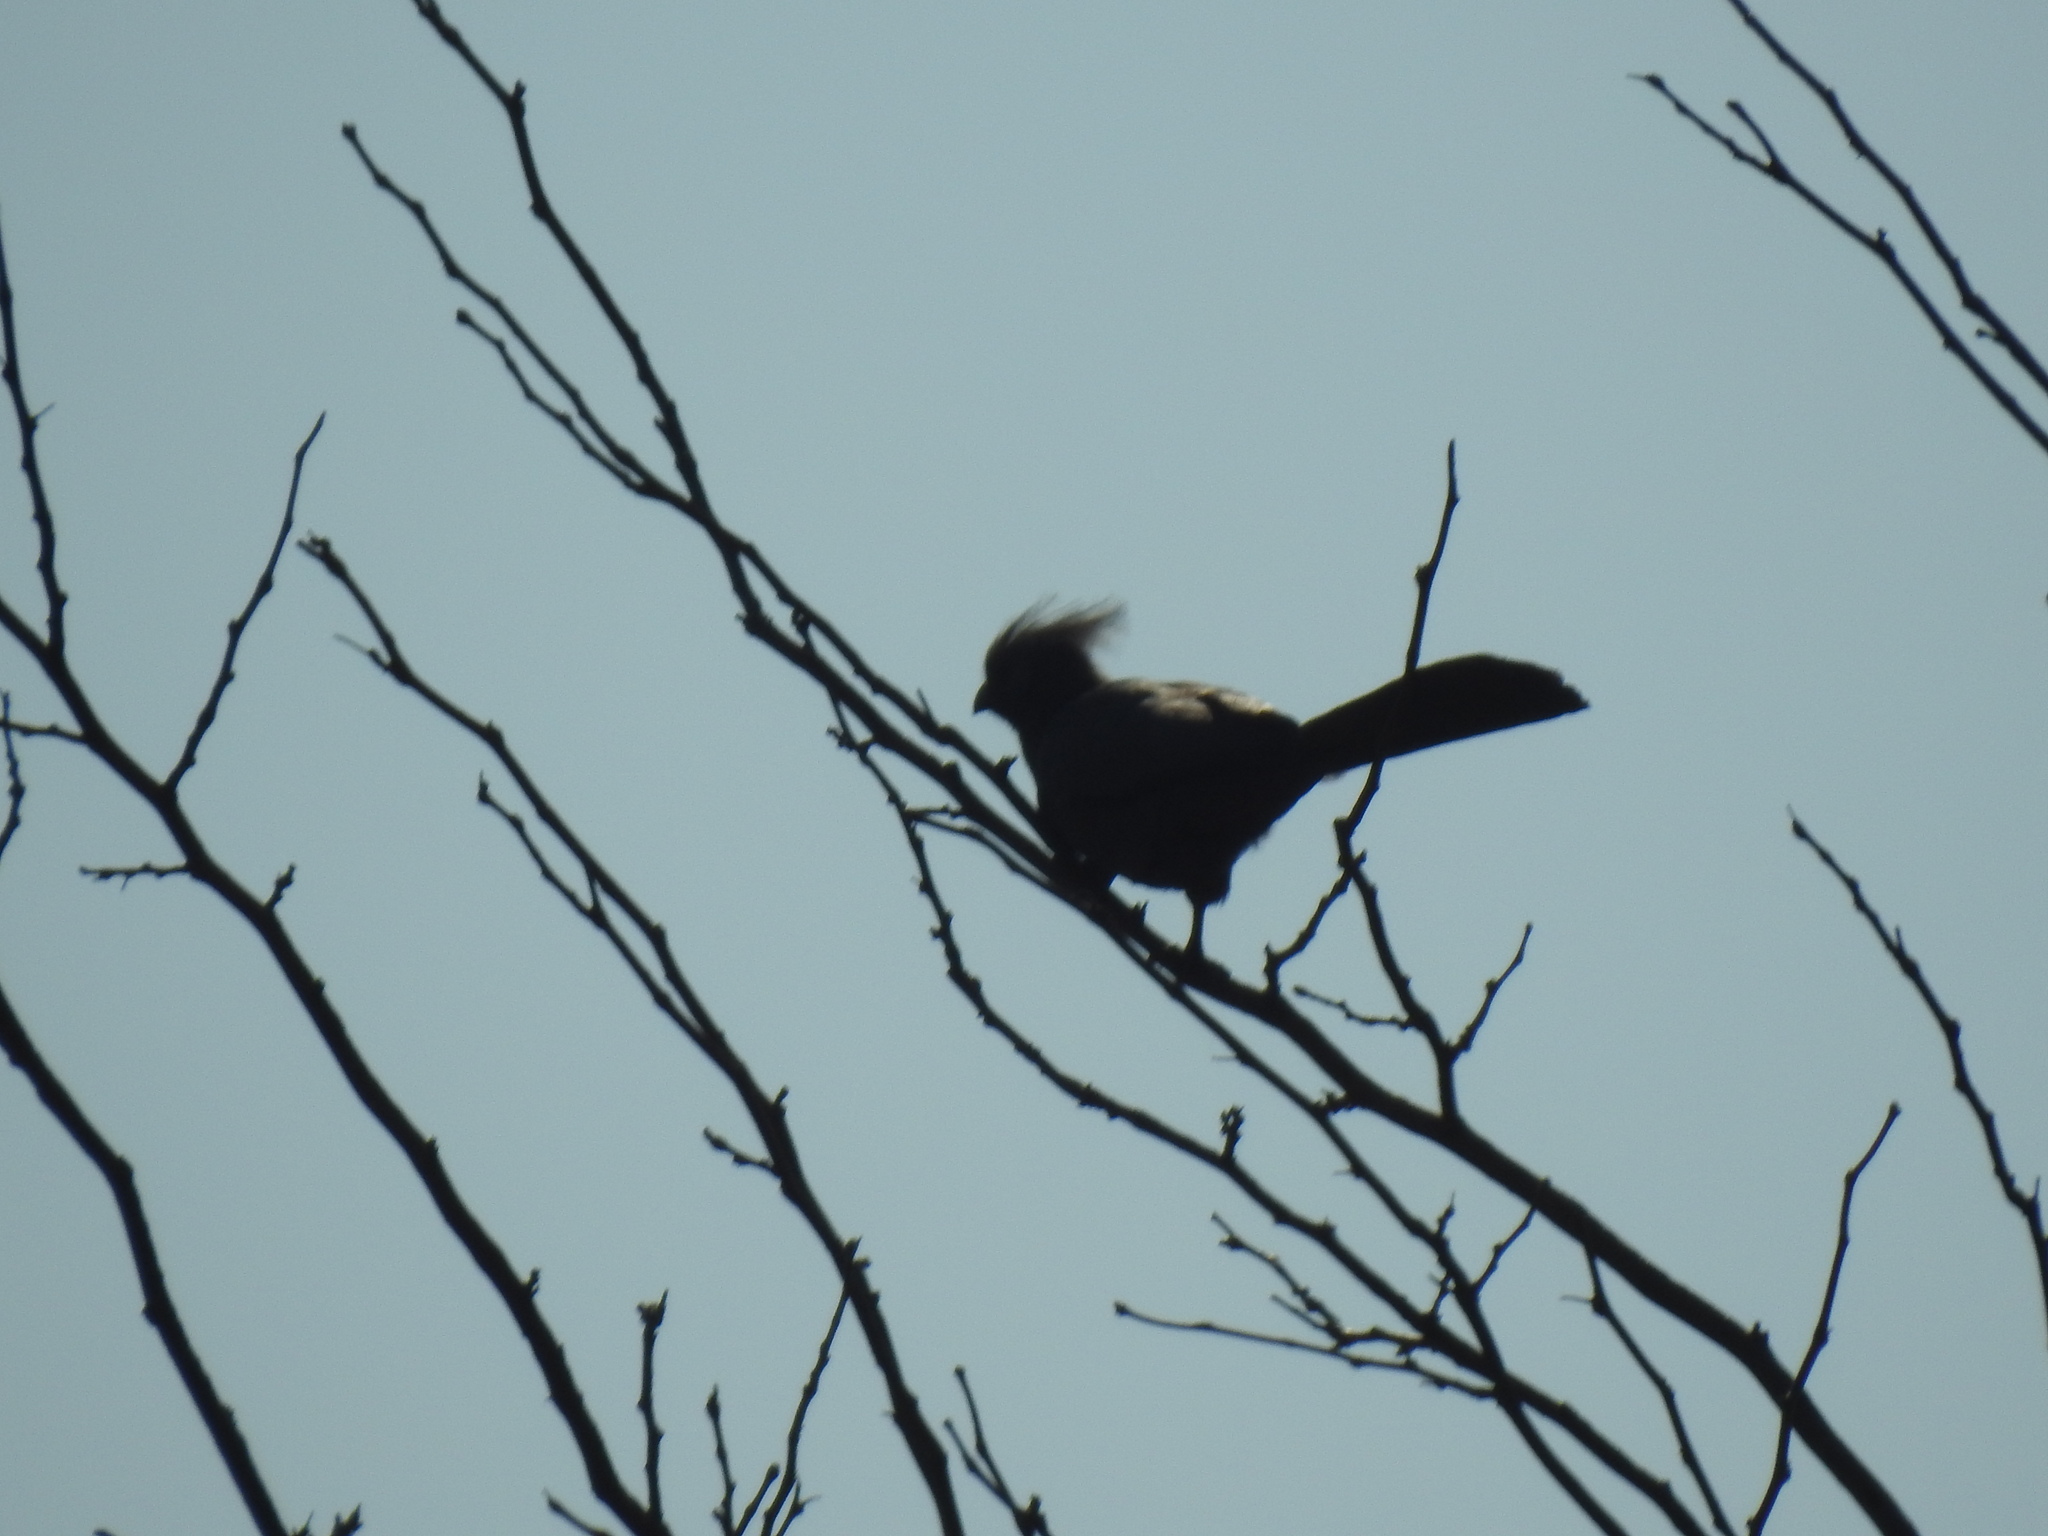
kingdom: Animalia
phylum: Chordata
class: Aves
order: Musophagiformes
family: Musophagidae
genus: Corythaixoides
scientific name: Corythaixoides concolor
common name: Grey go-away-bird
